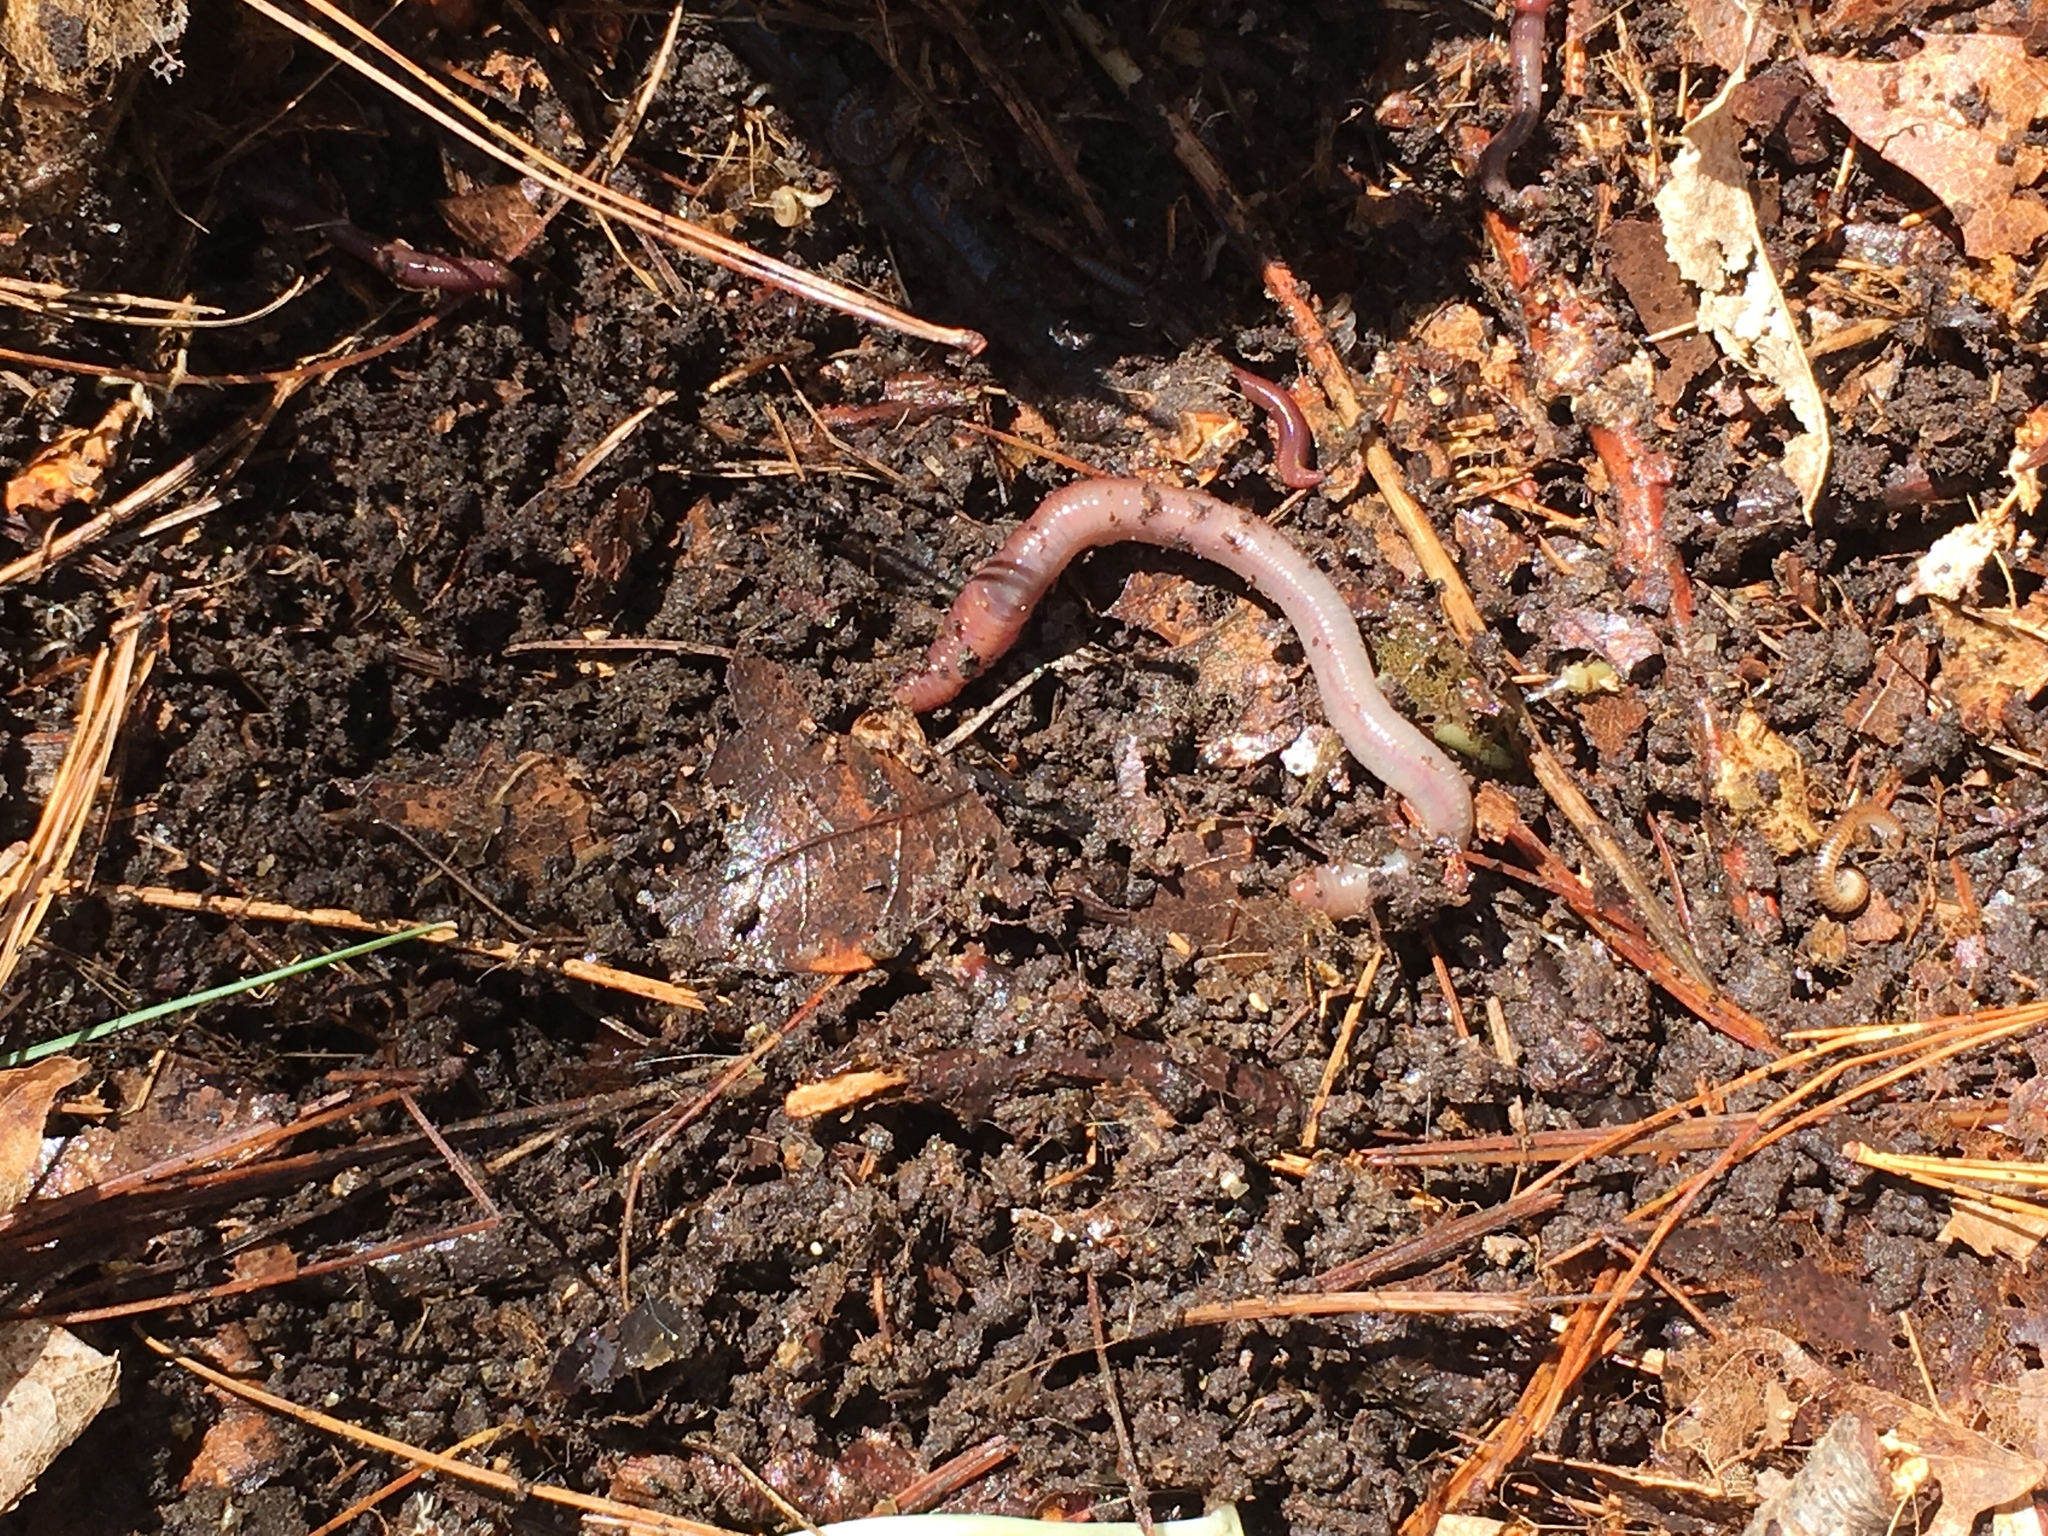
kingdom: Animalia
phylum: Annelida
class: Clitellata
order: Crassiclitellata
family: Lumbricidae
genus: Lumbricus
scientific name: Lumbricus terrestris
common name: Common earthworm
